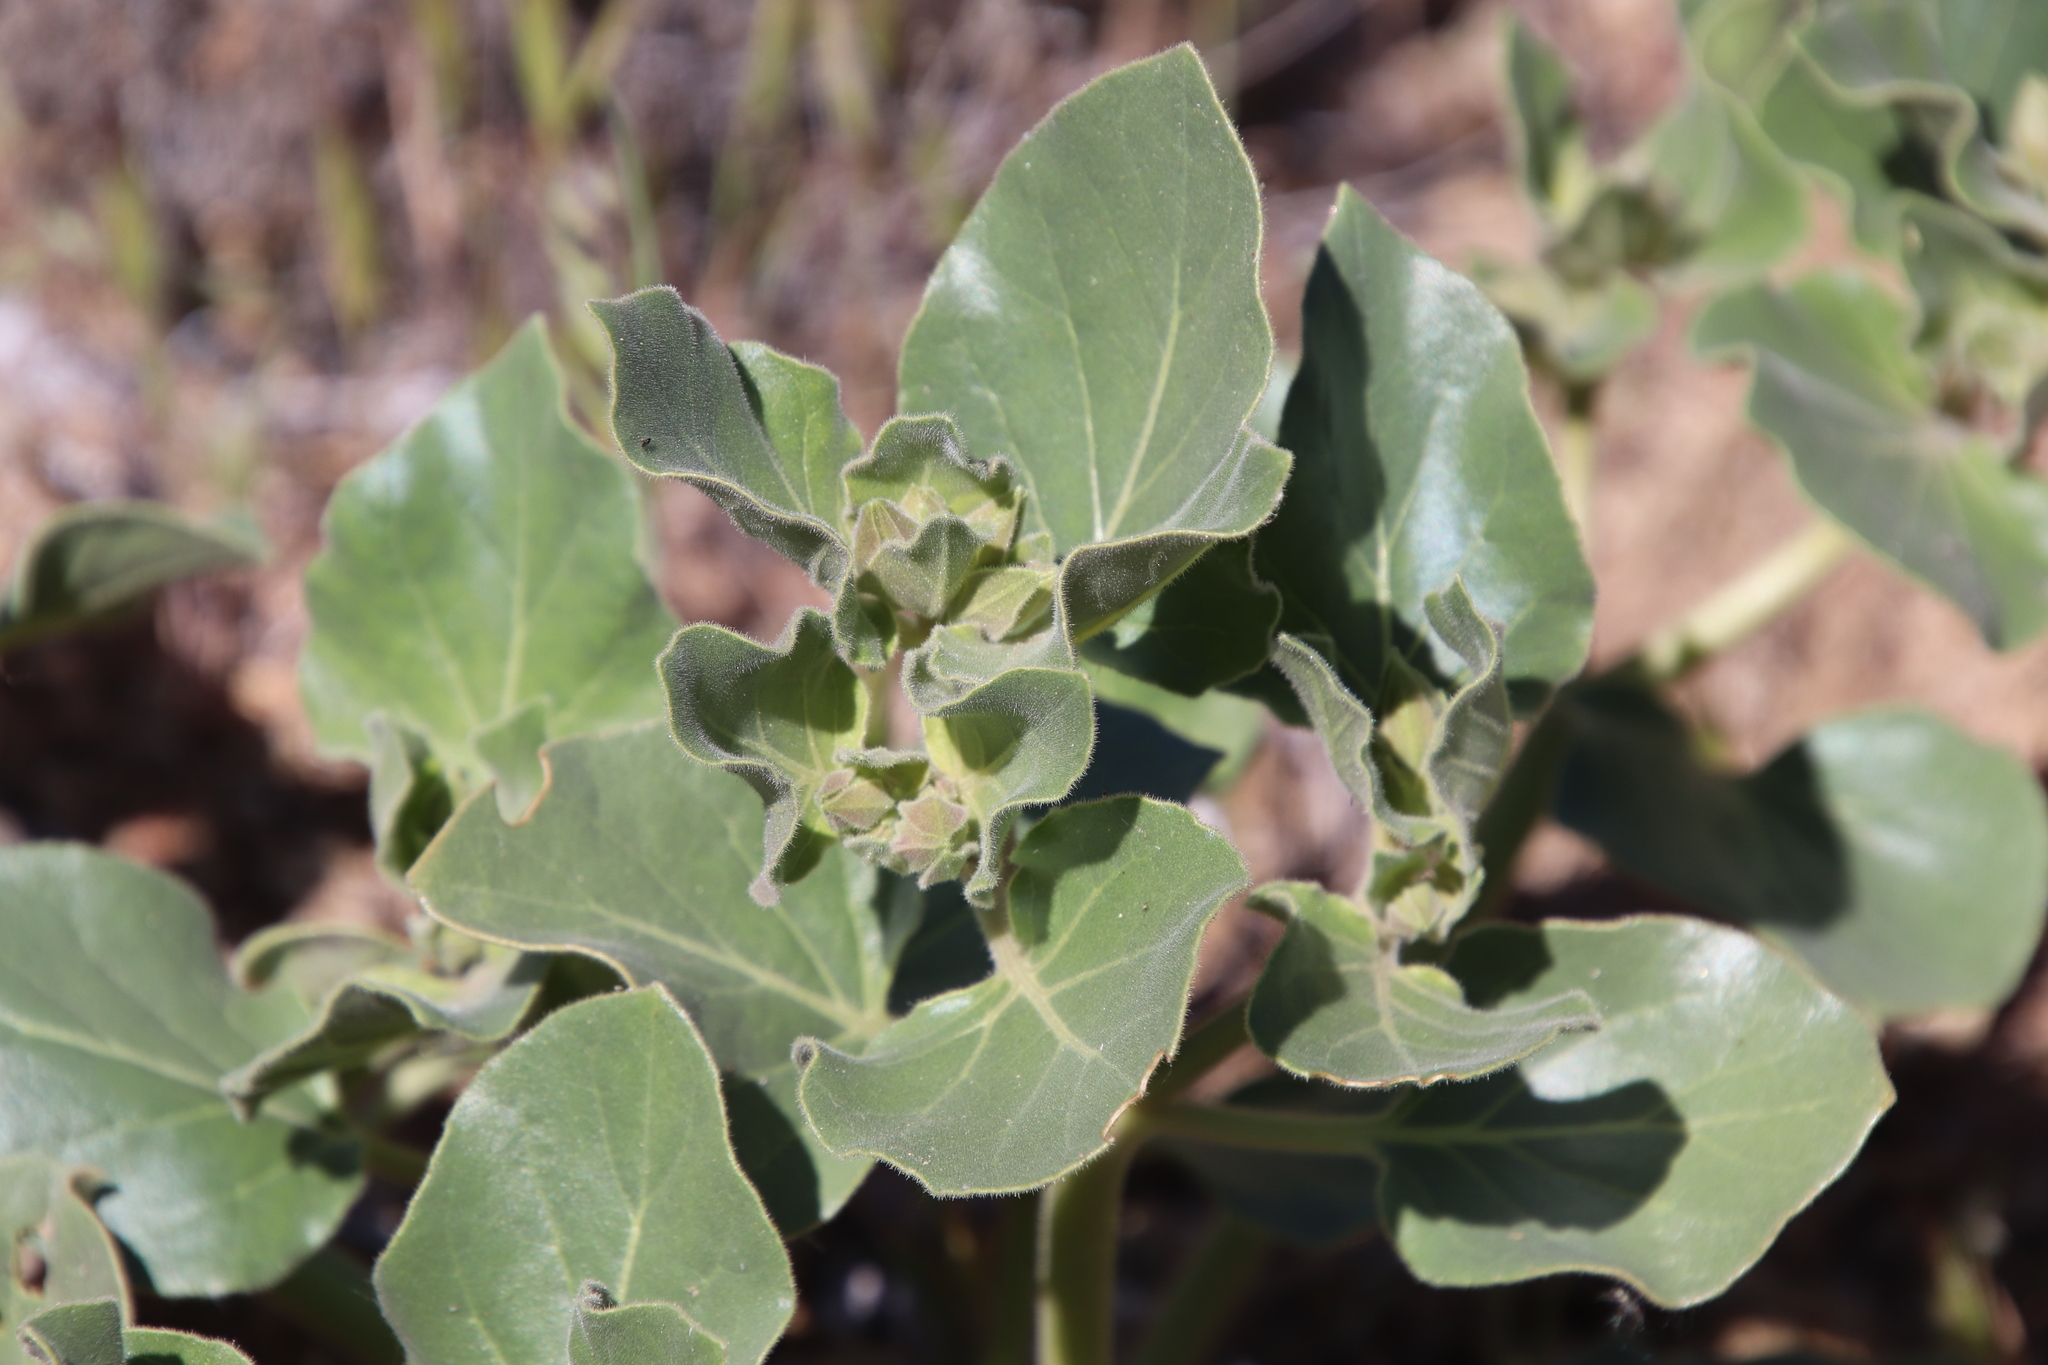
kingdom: Plantae
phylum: Tracheophyta
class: Magnoliopsida
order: Caryophyllales
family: Nyctaginaceae
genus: Mirabilis
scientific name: Mirabilis multiflora
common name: Froebel's four-o'clock
